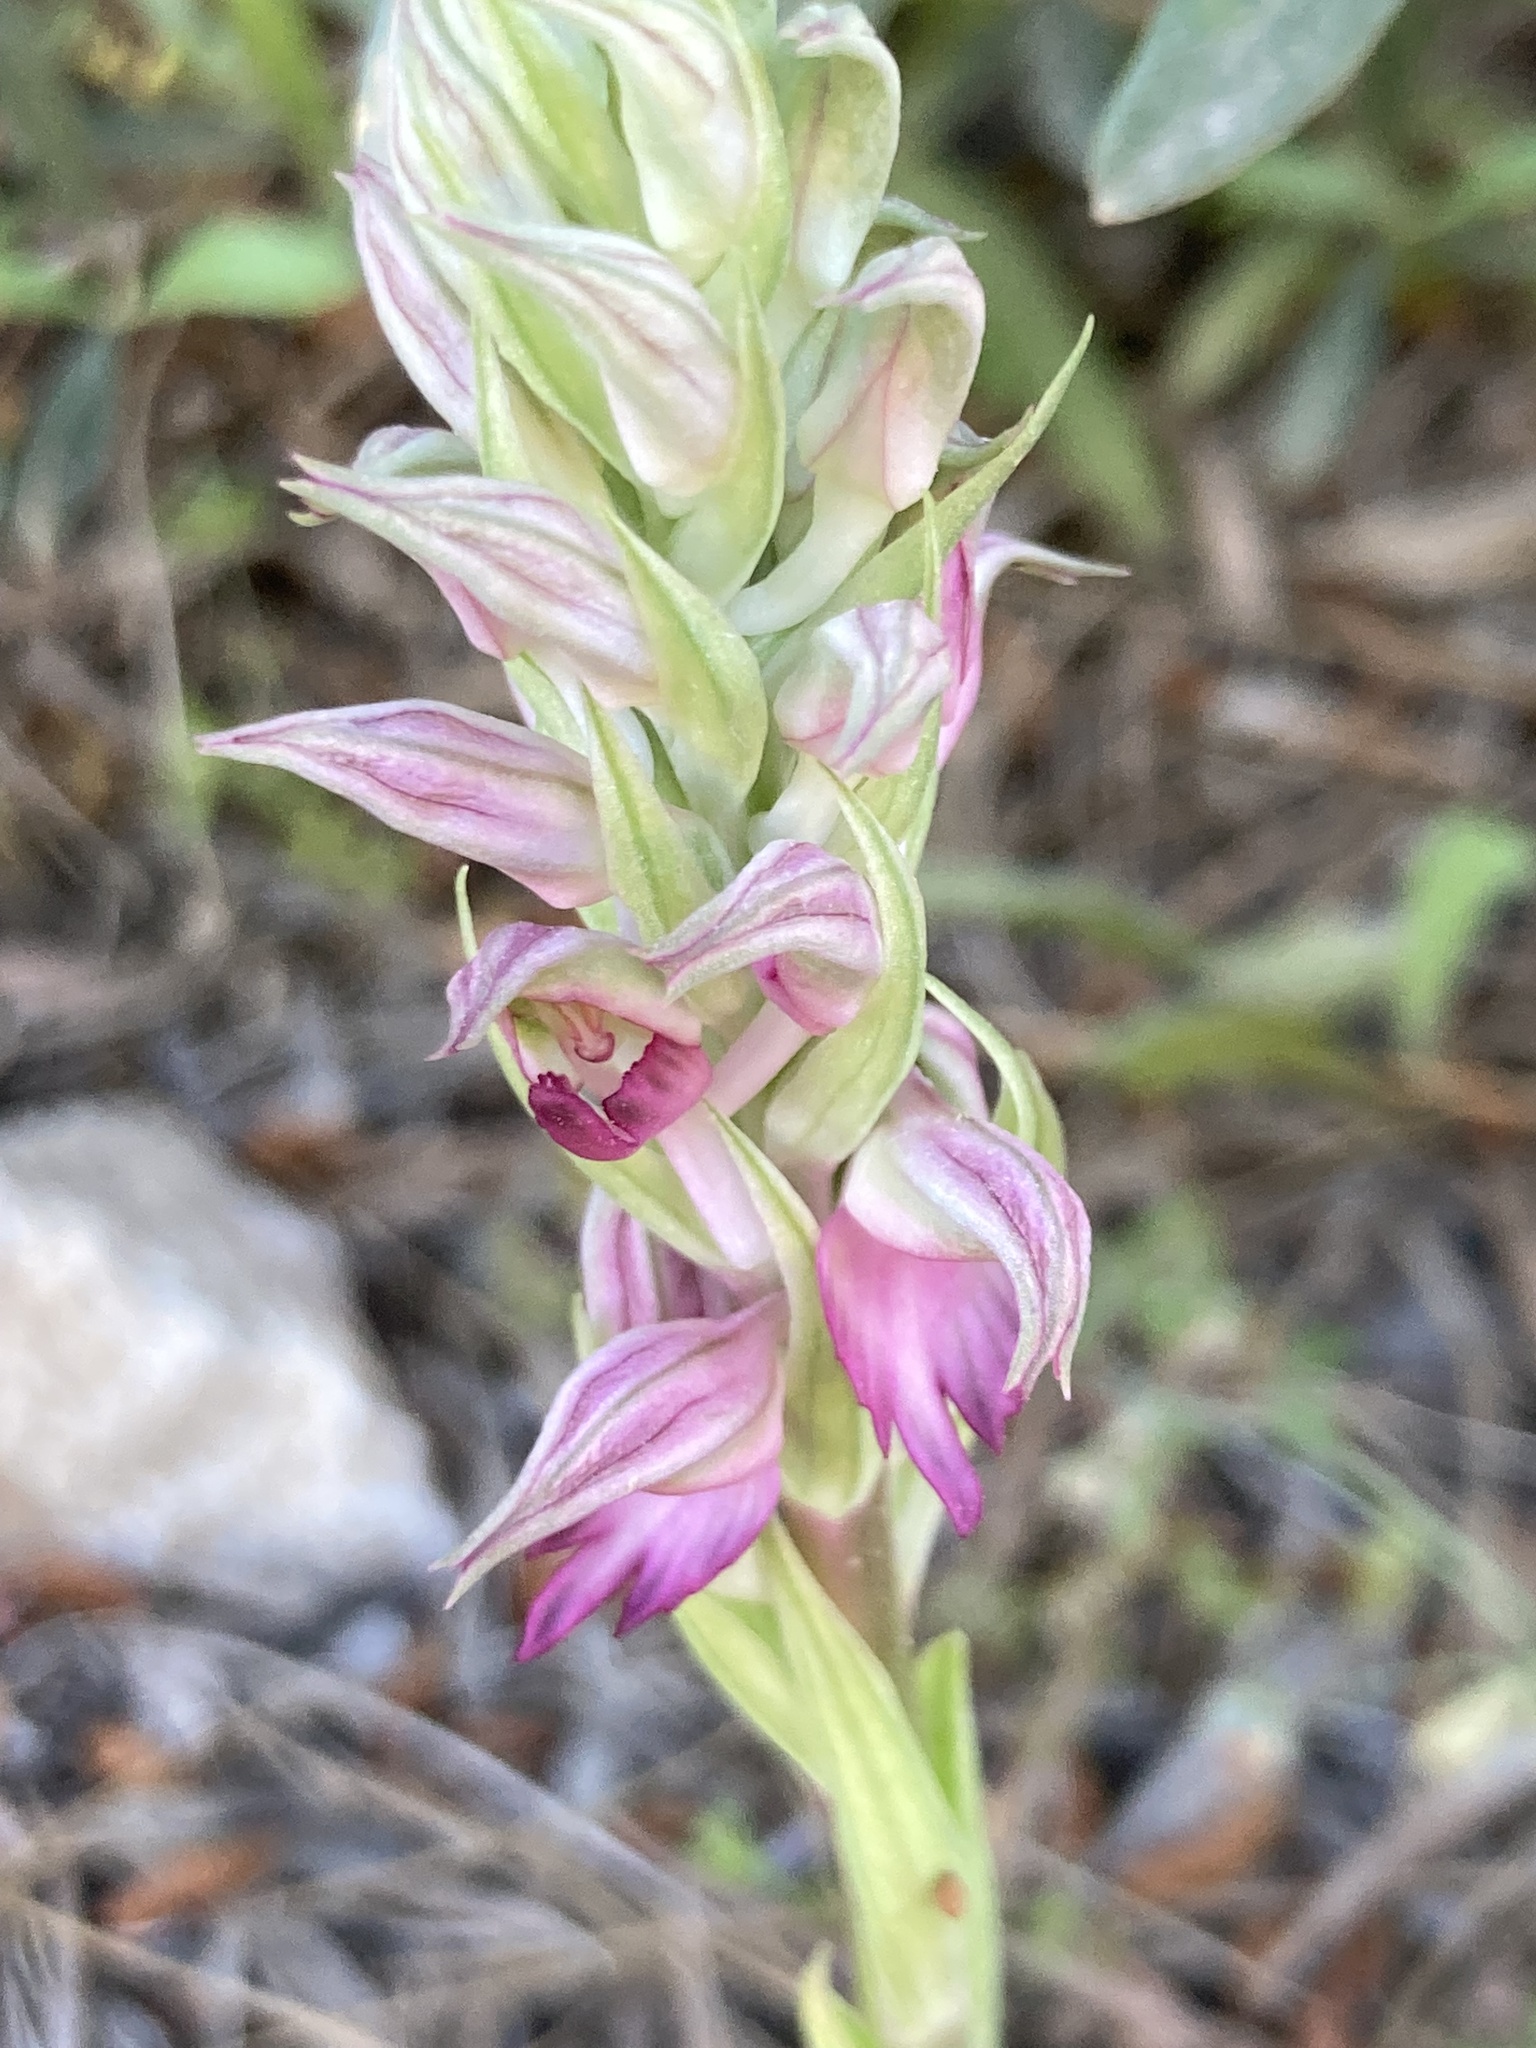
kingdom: Plantae
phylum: Tracheophyta
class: Liliopsida
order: Asparagales
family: Orchidaceae
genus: Anacamptis
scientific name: Anacamptis sancta
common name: Holy orchid
